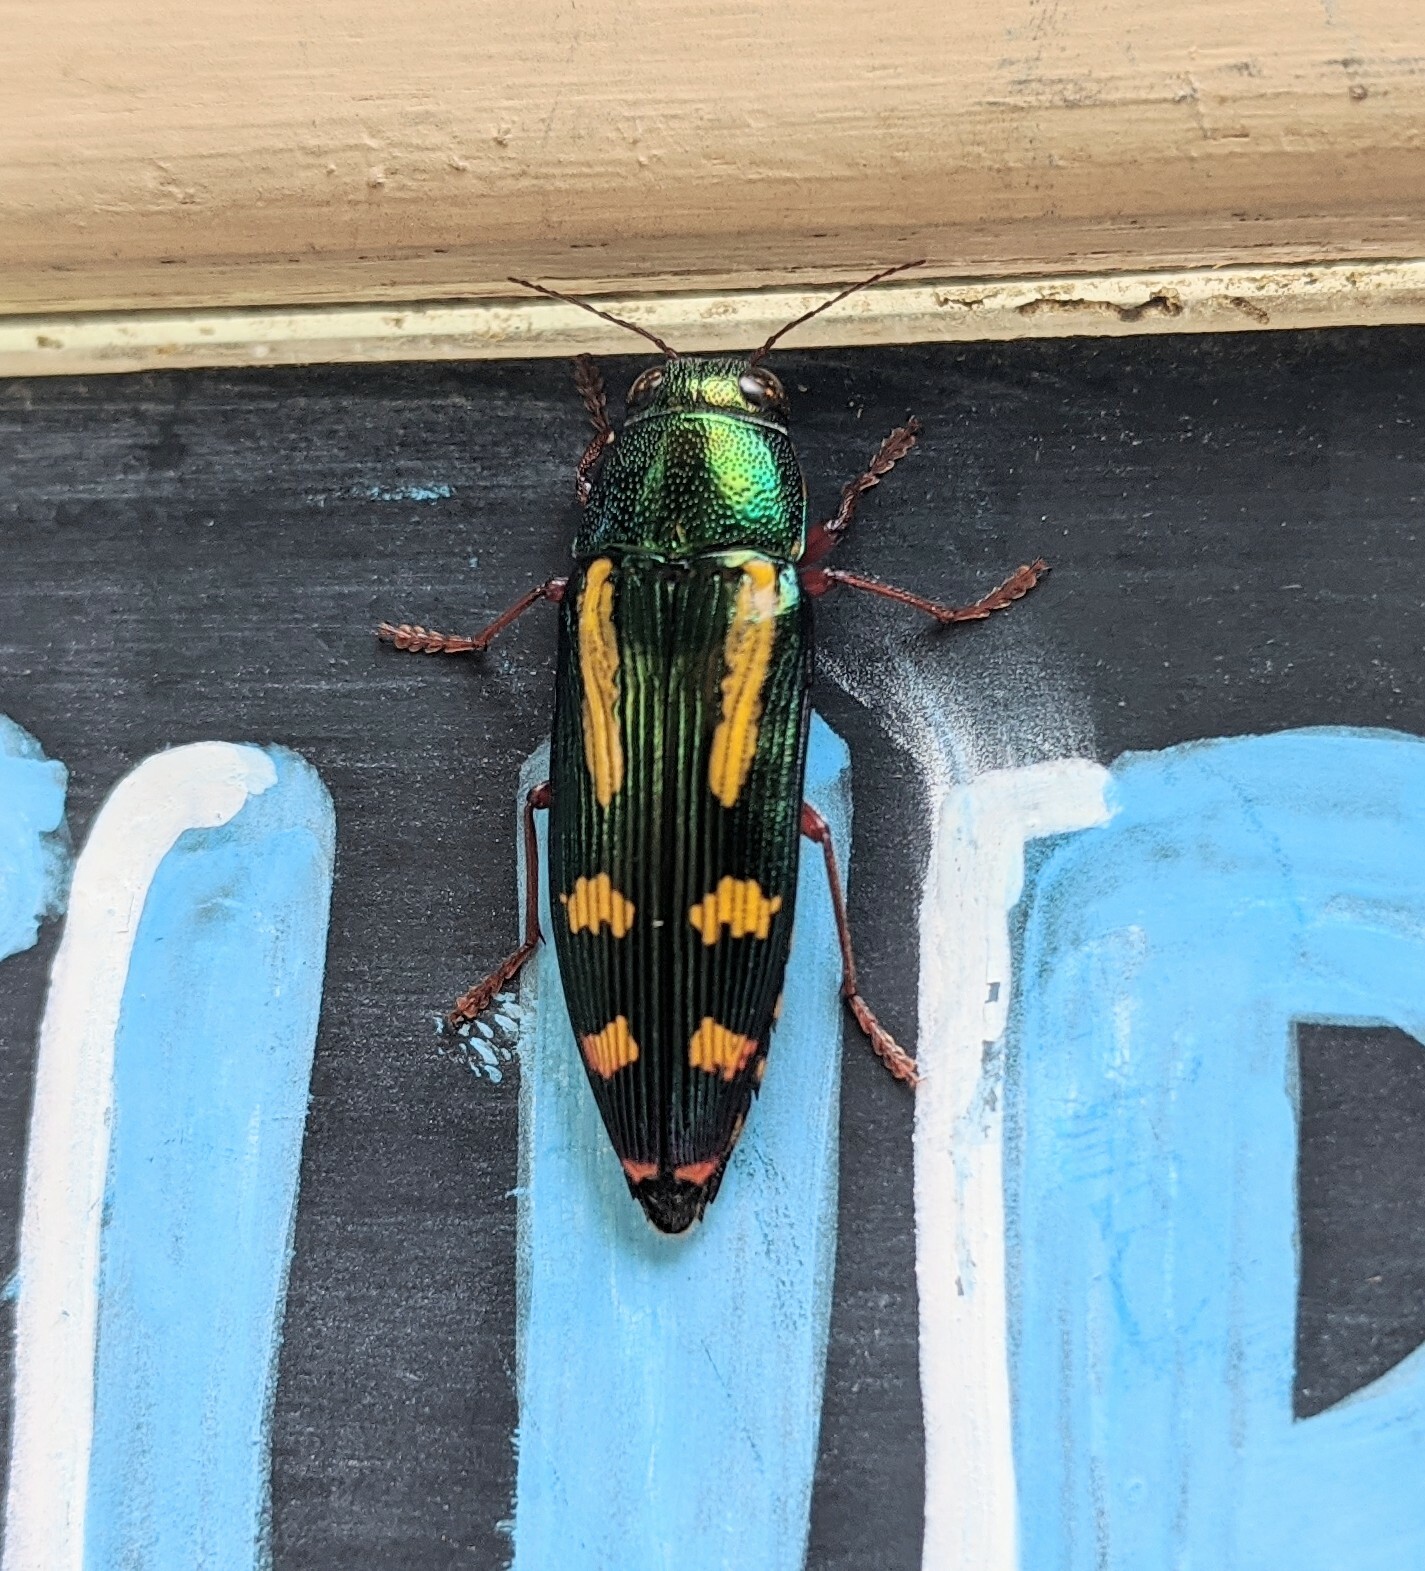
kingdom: Animalia
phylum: Arthropoda
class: Insecta
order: Coleoptera
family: Buprestidae
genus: Buprestis
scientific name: Buprestis rufipes
